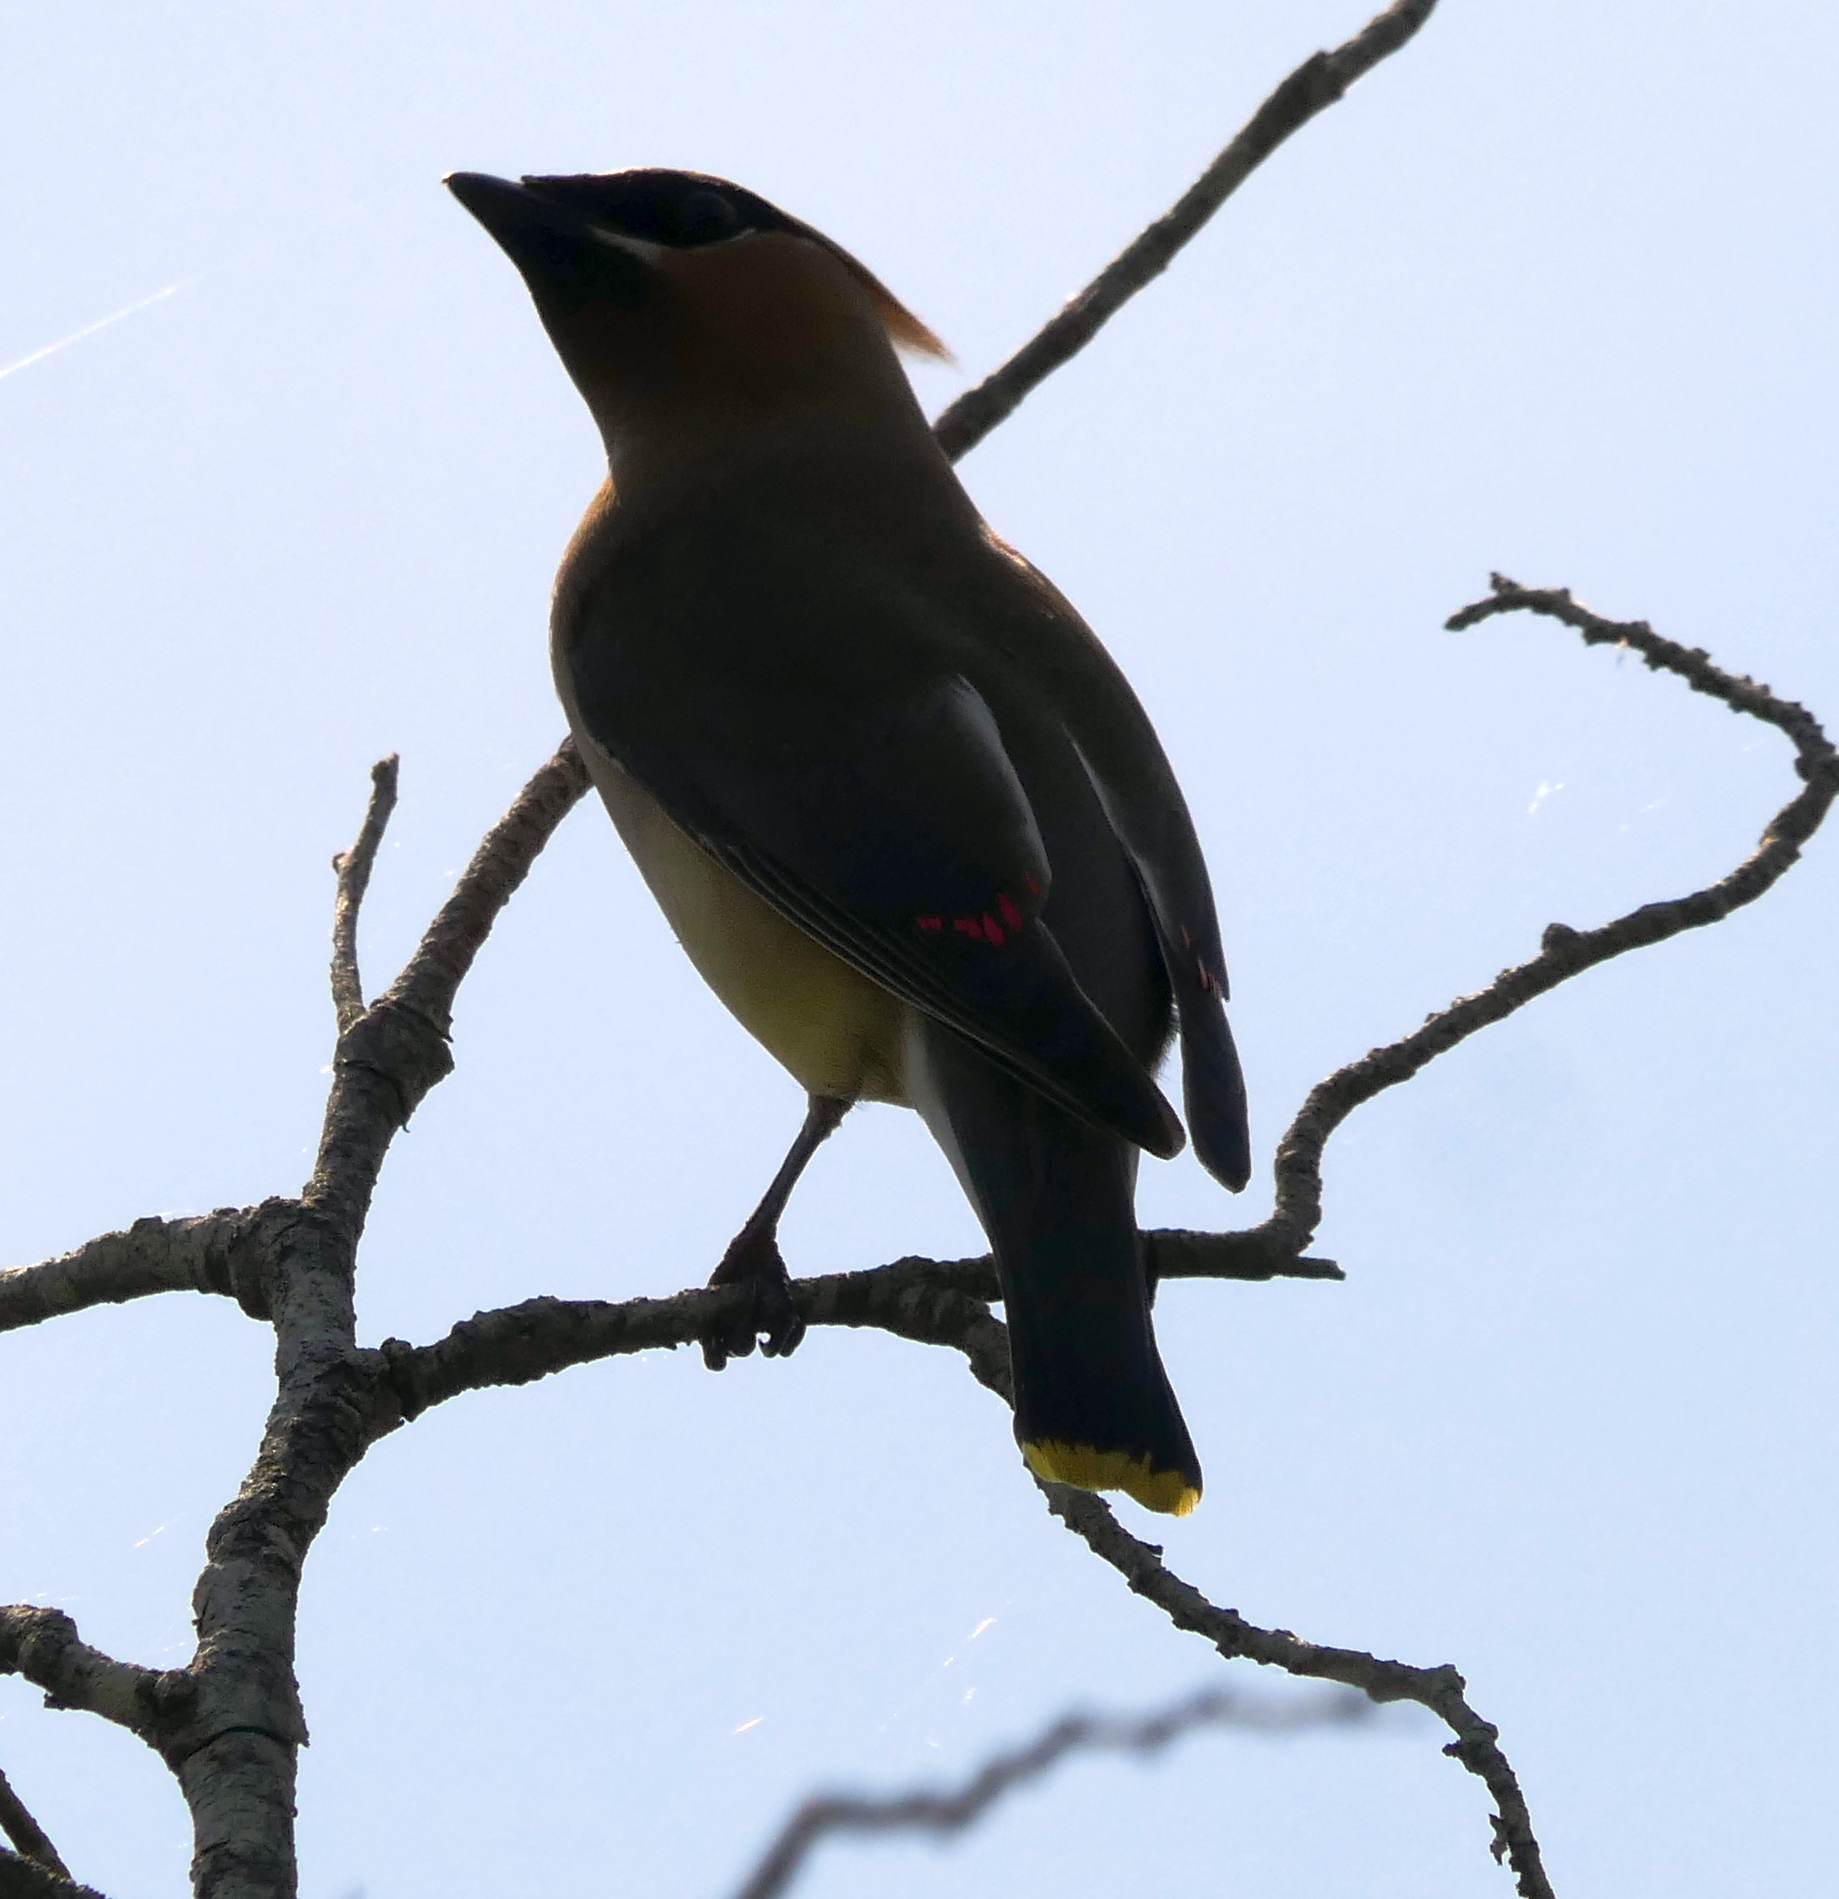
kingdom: Animalia
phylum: Chordata
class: Aves
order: Passeriformes
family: Bombycillidae
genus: Bombycilla
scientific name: Bombycilla cedrorum
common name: Cedar waxwing
